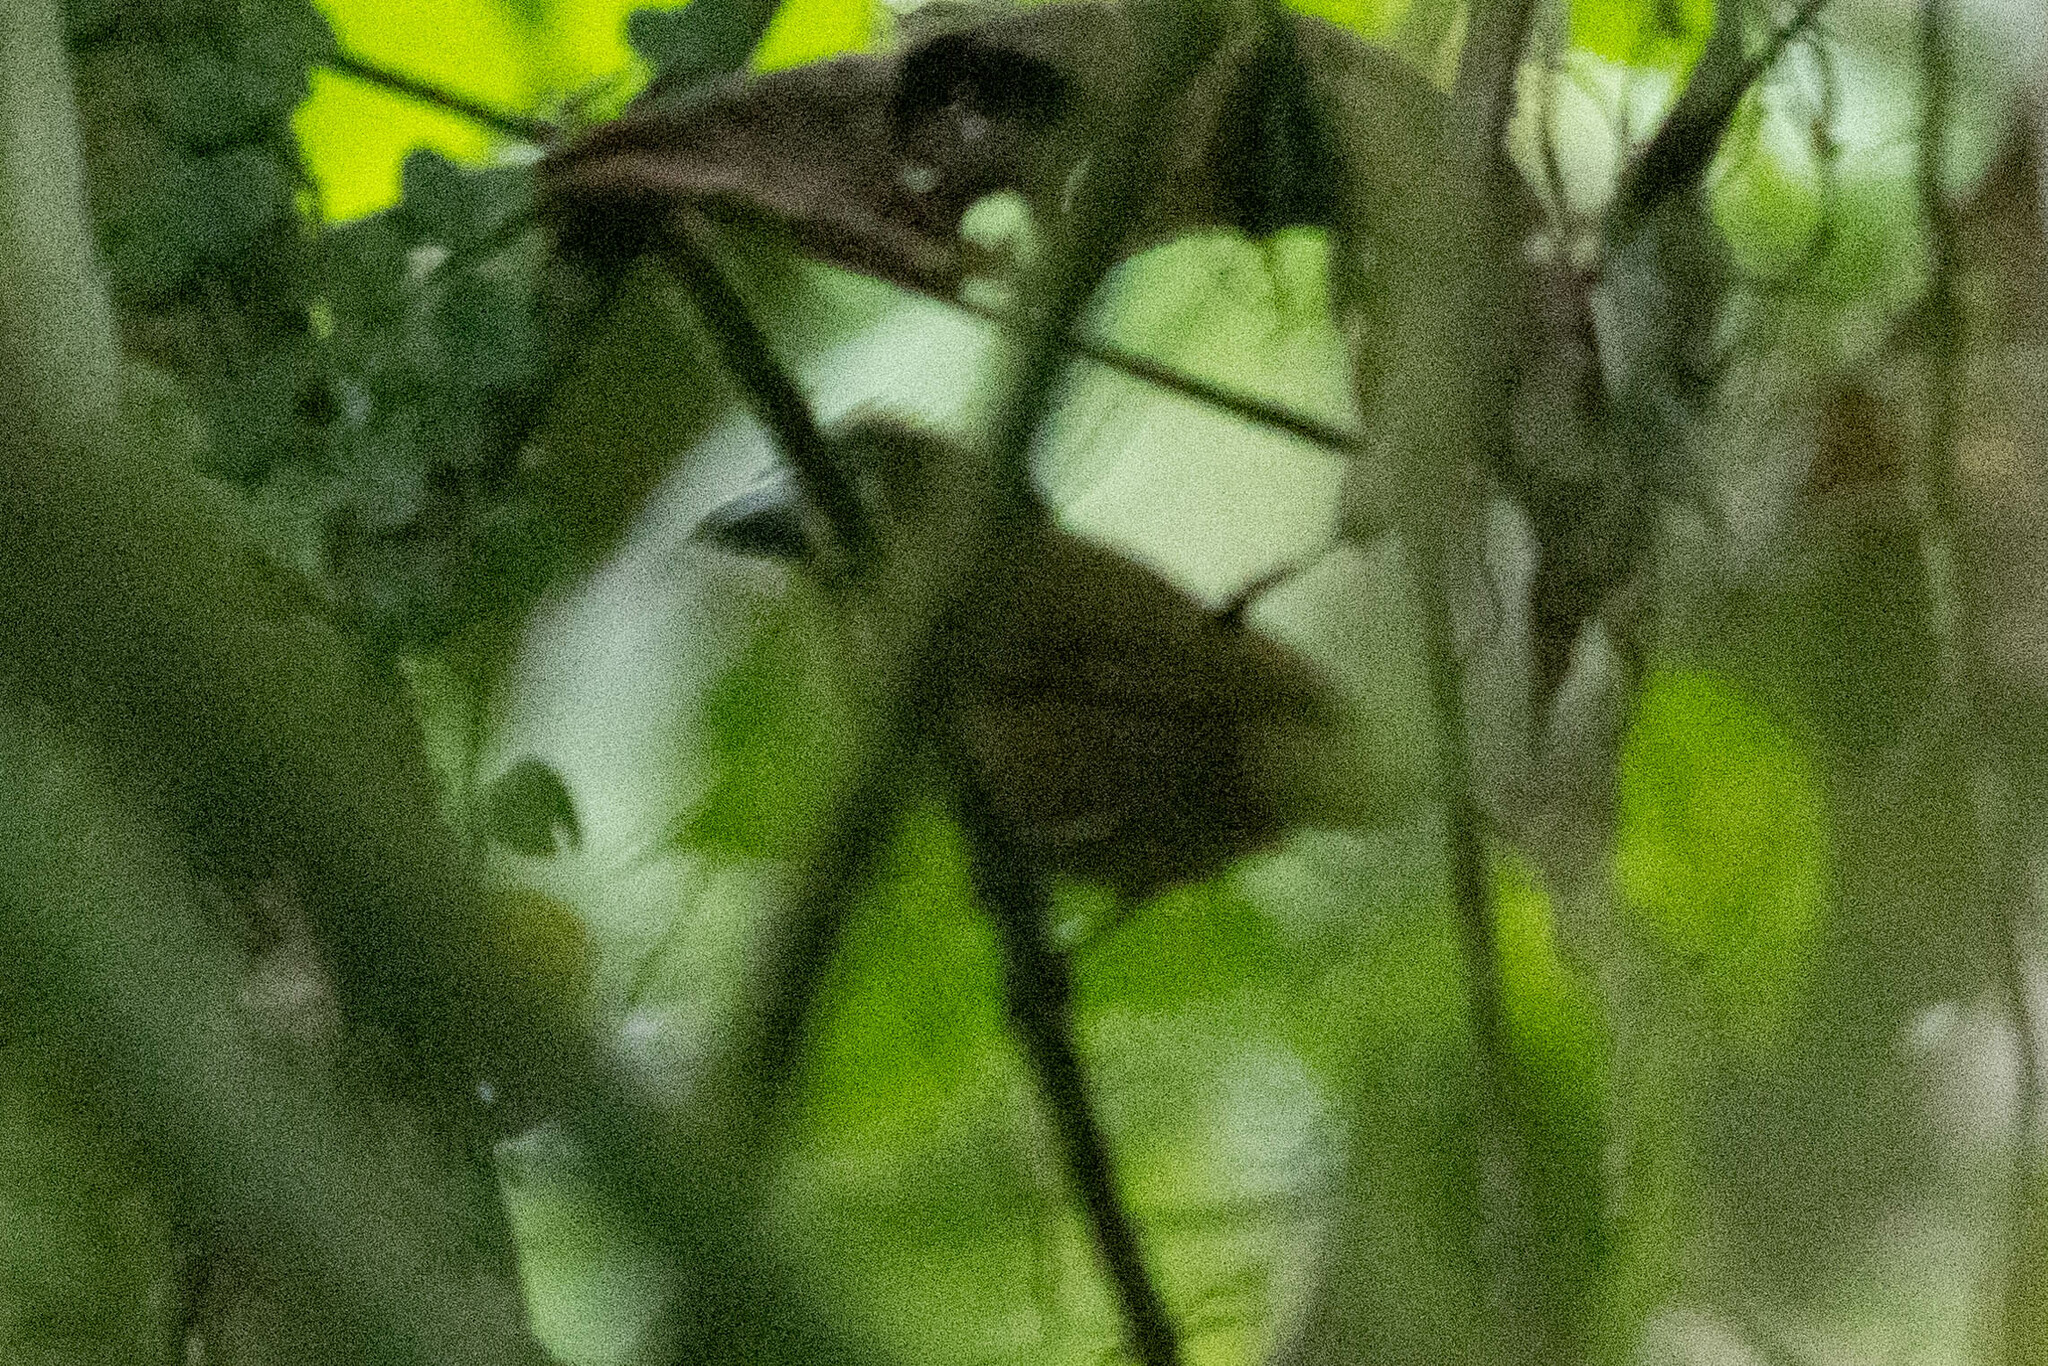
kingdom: Animalia
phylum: Chordata
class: Aves
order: Passeriformes
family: Cardinalidae
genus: Chlorothraupis
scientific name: Chlorothraupis stolzmanni
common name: Ochre-breasted tanager
